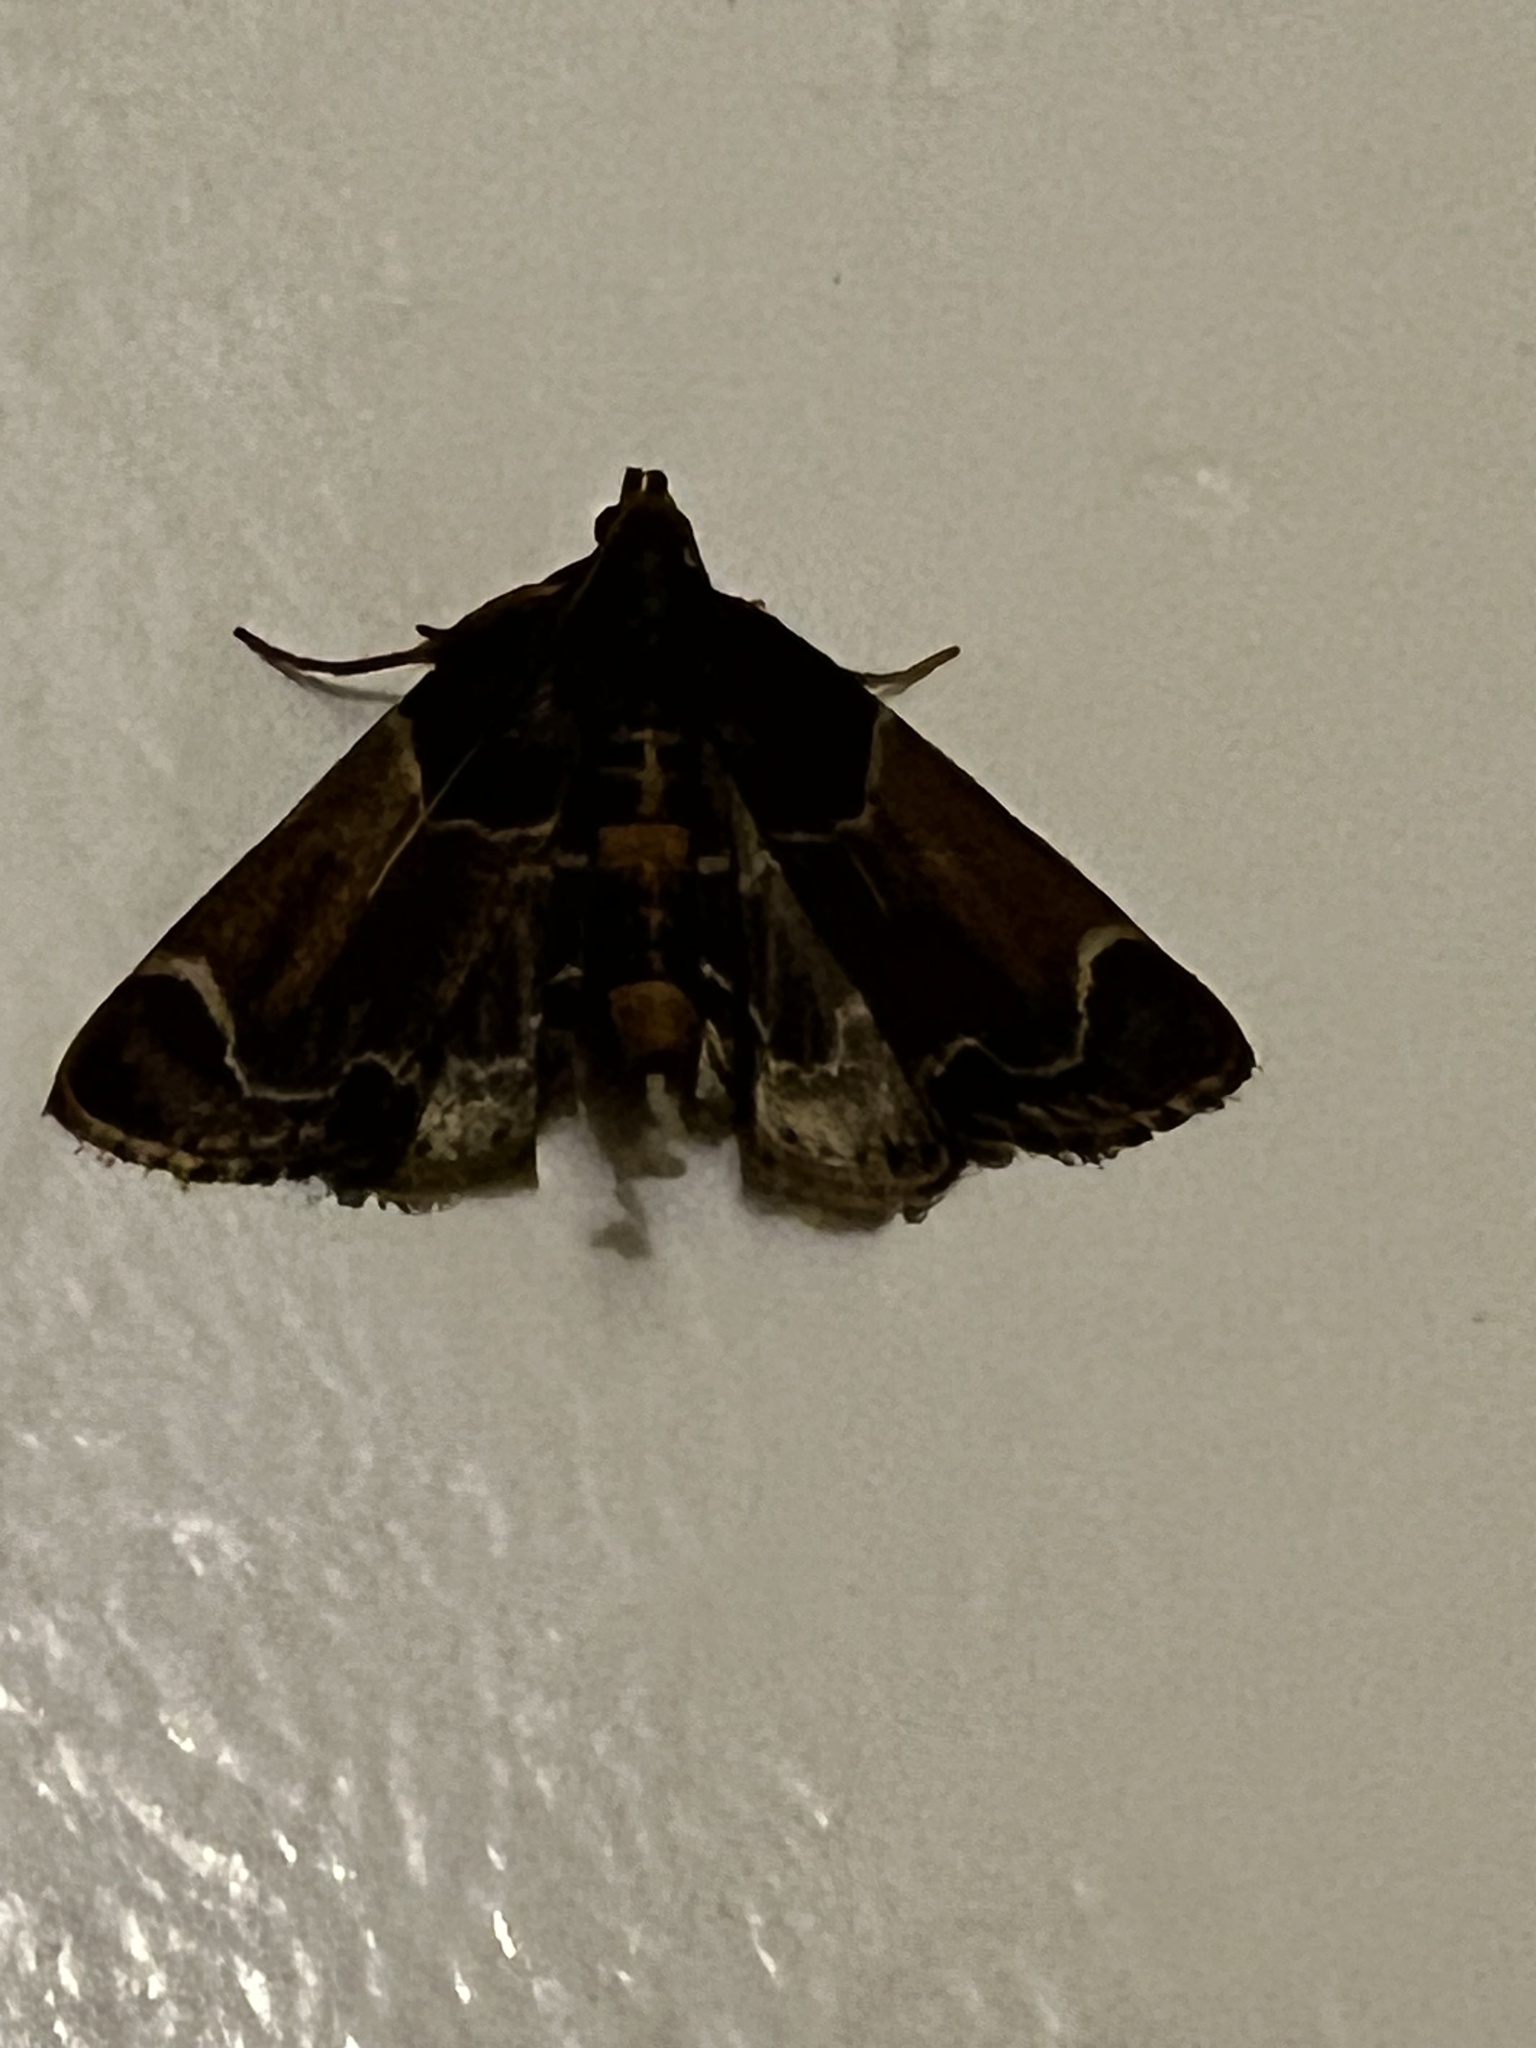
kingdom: Animalia
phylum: Arthropoda
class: Insecta
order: Lepidoptera
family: Pyralidae
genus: Pyralis
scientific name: Pyralis farinalis
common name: Meal moth
